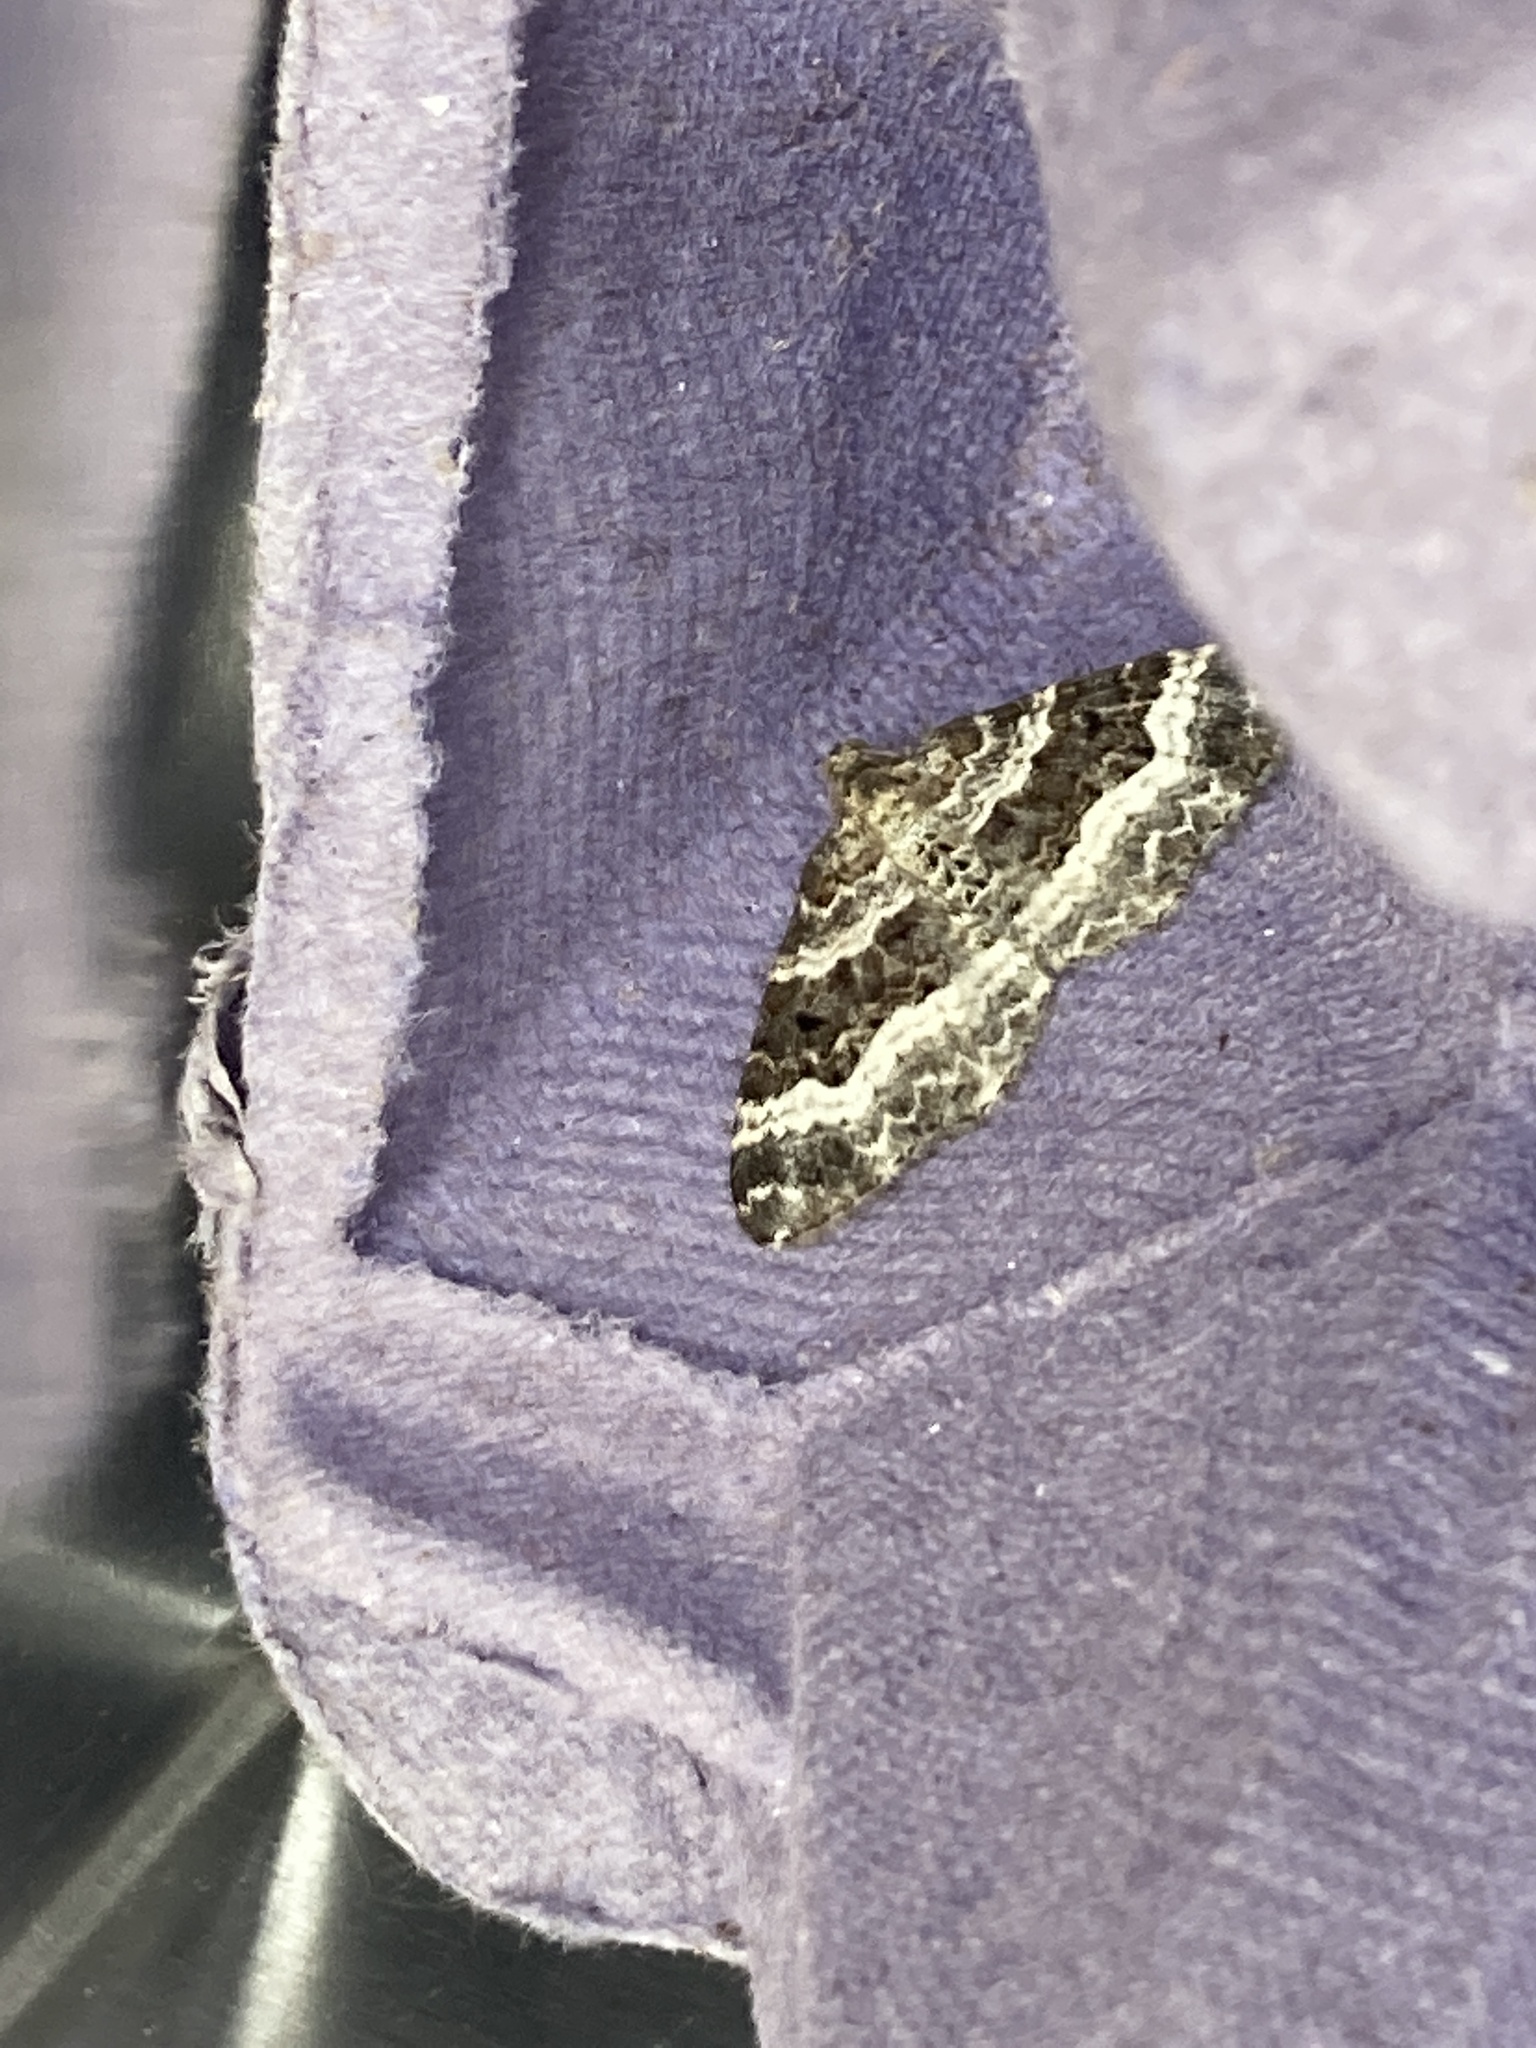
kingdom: Animalia
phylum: Arthropoda
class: Insecta
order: Lepidoptera
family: Geometridae
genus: Epirrhoe
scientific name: Epirrhoe alternata
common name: Common carpet
